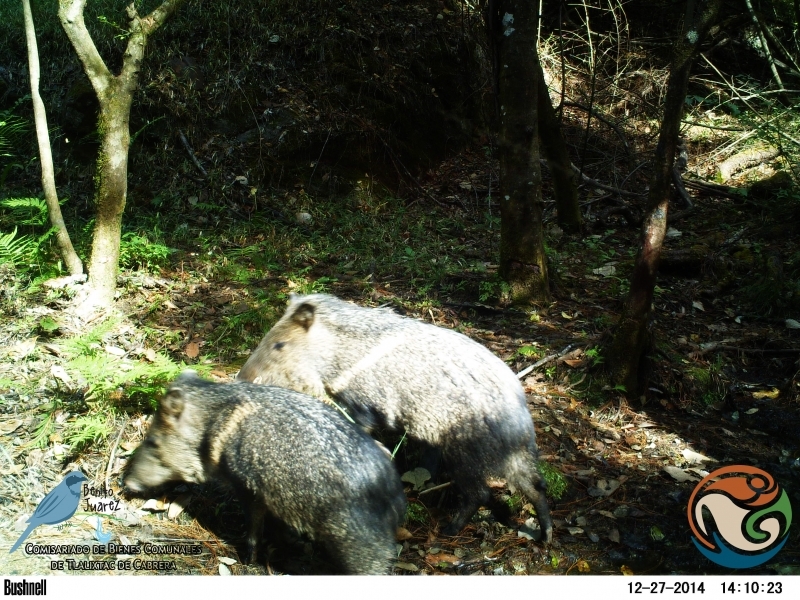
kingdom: Animalia
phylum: Chordata
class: Mammalia
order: Artiodactyla
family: Tayassuidae
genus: Pecari
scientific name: Pecari tajacu
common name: Collared peccary
